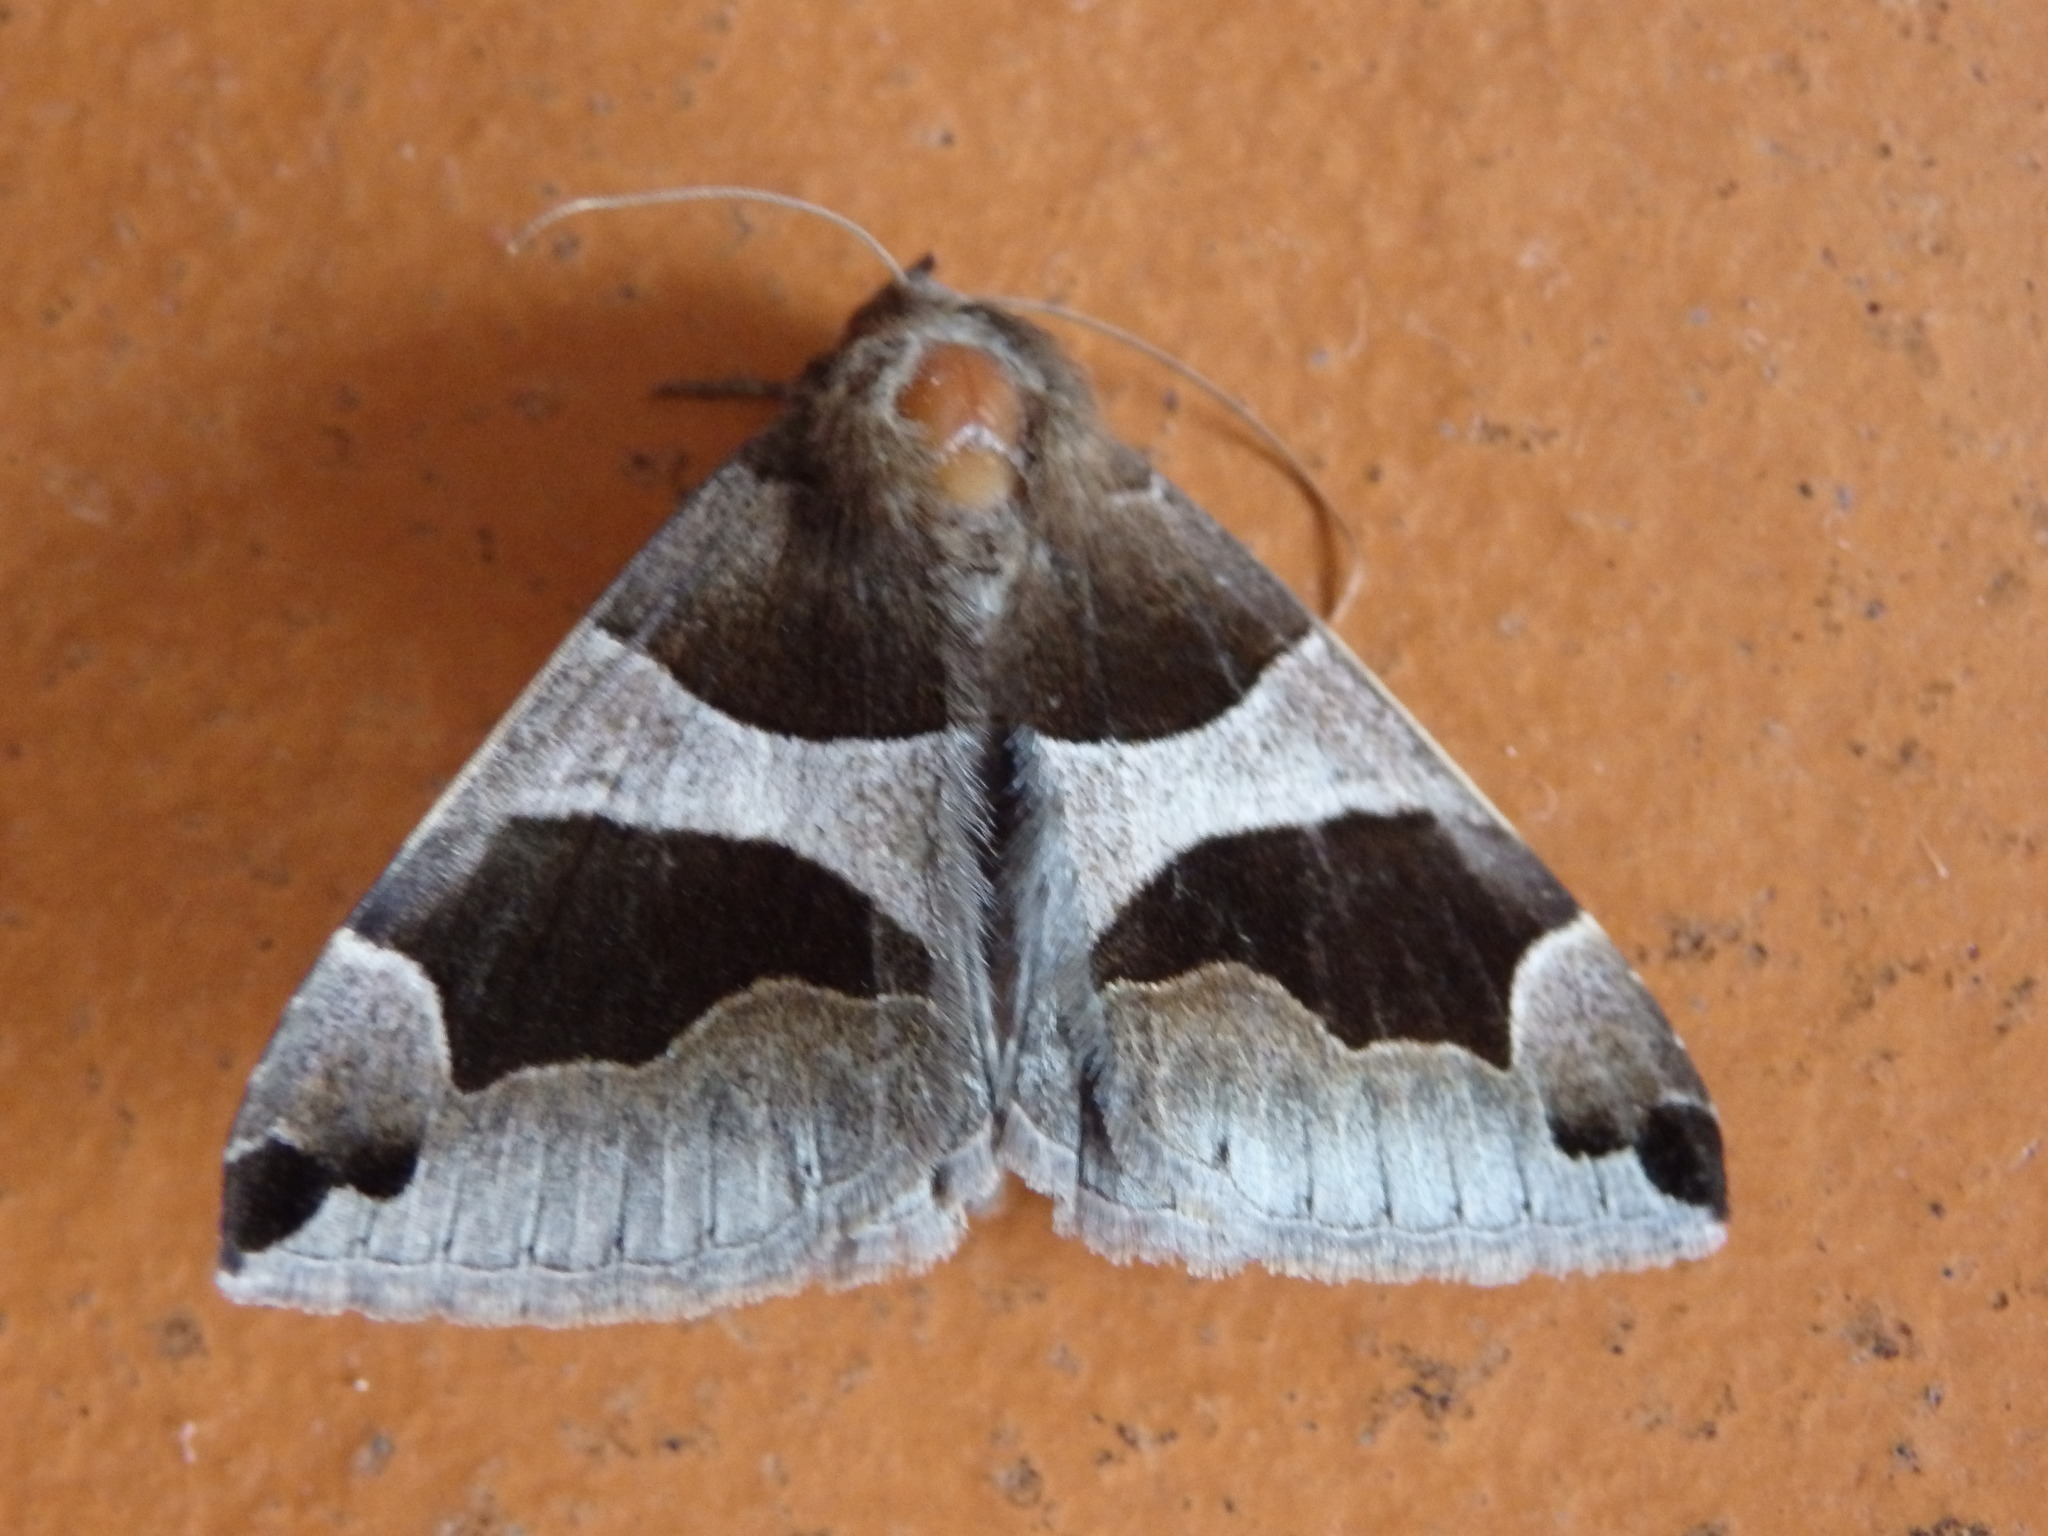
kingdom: Animalia
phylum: Arthropoda
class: Insecta
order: Lepidoptera
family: Erebidae
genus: Dysgonia
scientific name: Dysgonia algira
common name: Passenger
